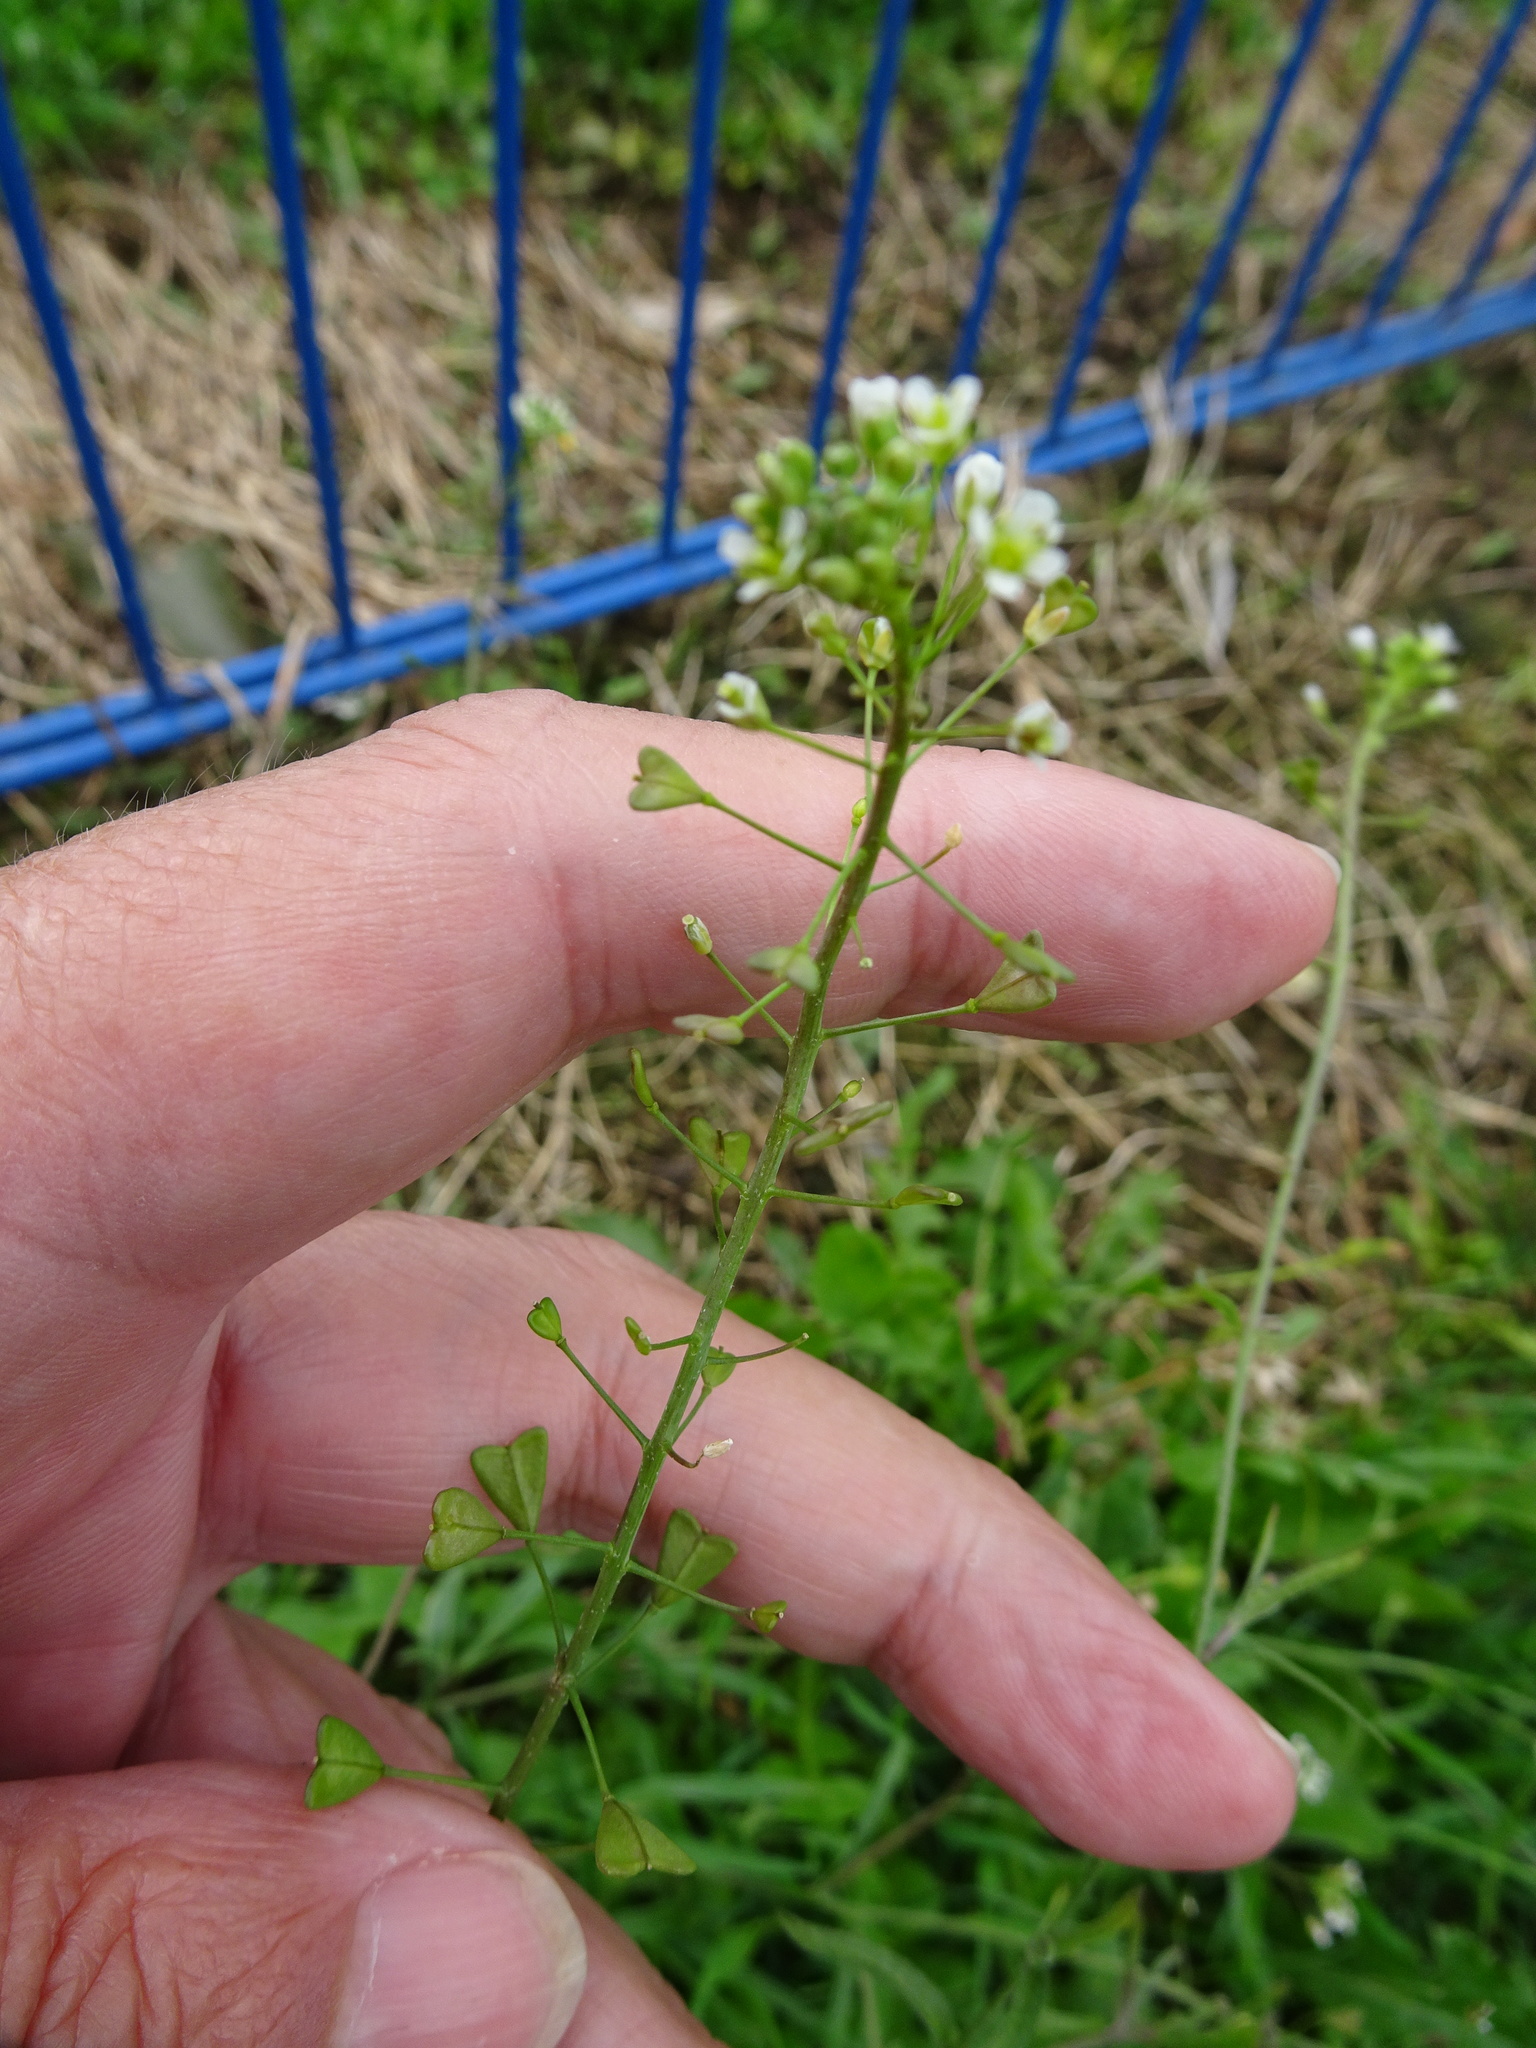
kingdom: Plantae
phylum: Tracheophyta
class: Magnoliopsida
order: Brassicales
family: Brassicaceae
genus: Capsella
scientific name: Capsella bursa-pastoris
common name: Shepherd's purse
